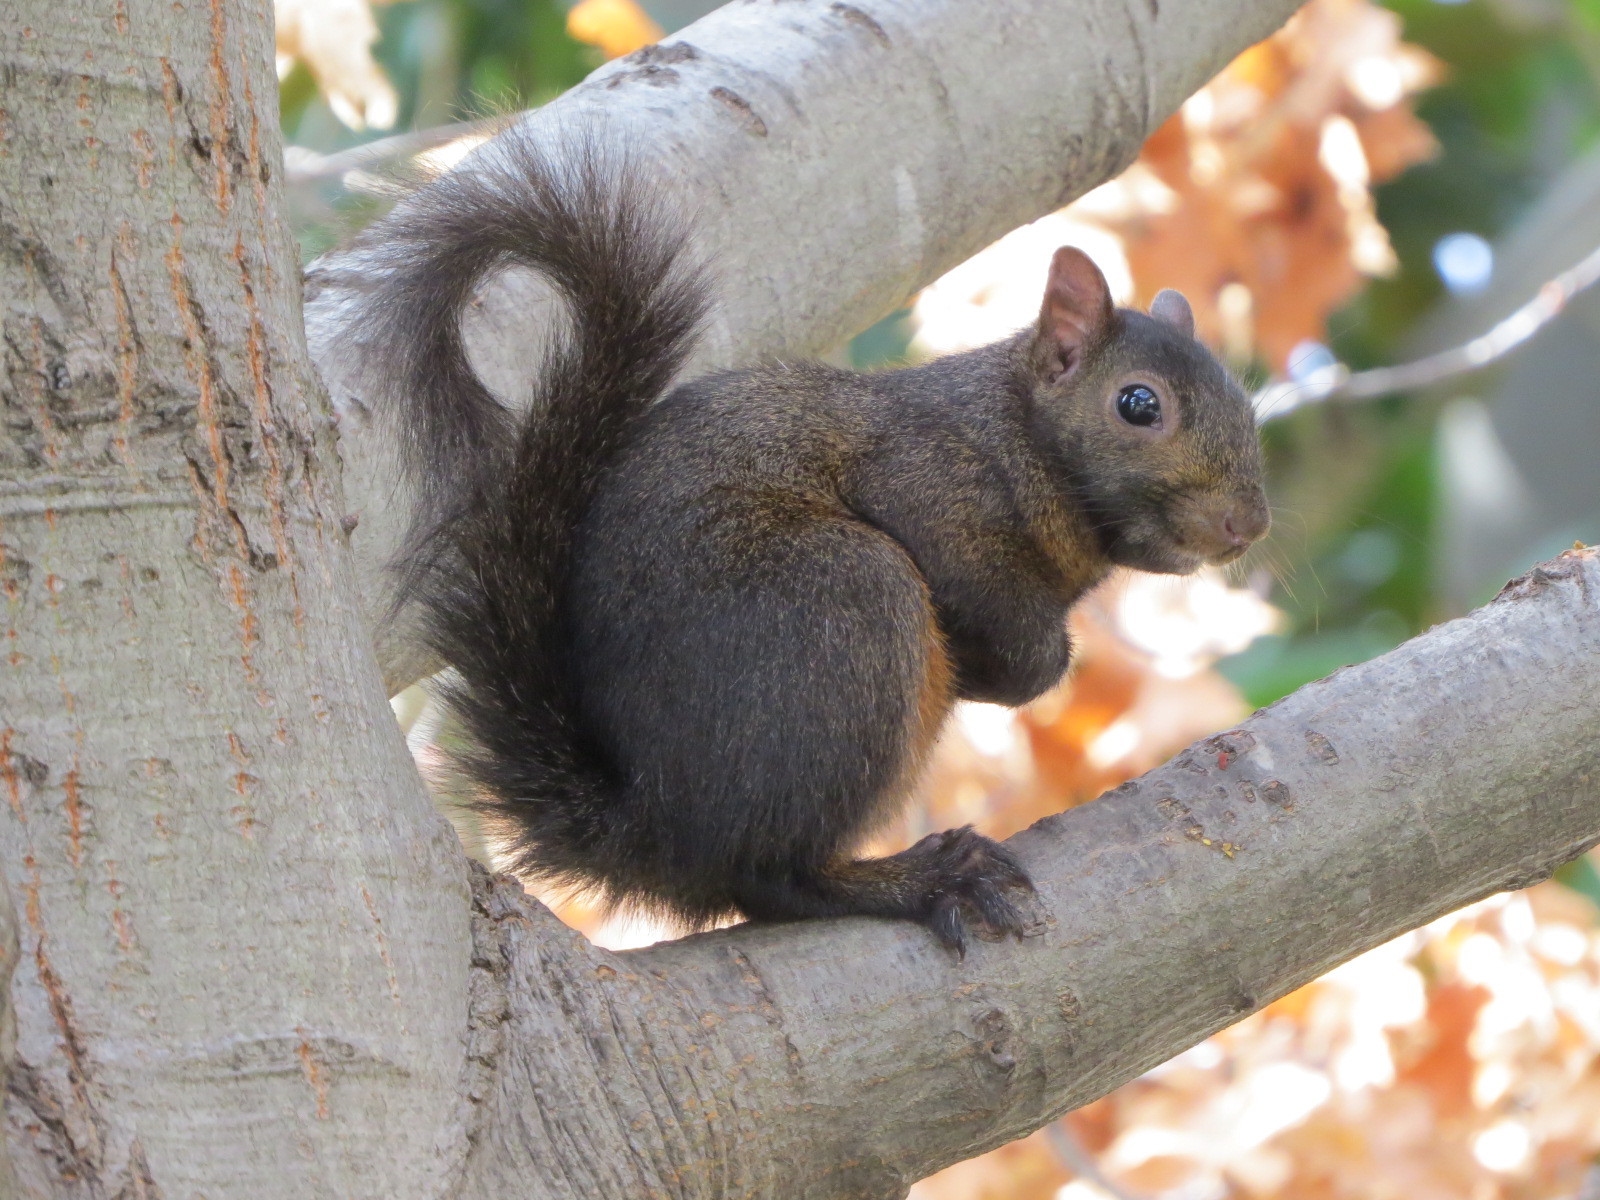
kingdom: Animalia
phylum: Chordata
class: Mammalia
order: Rodentia
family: Sciuridae
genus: Sciurus
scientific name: Sciurus carolinensis
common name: Eastern gray squirrel
